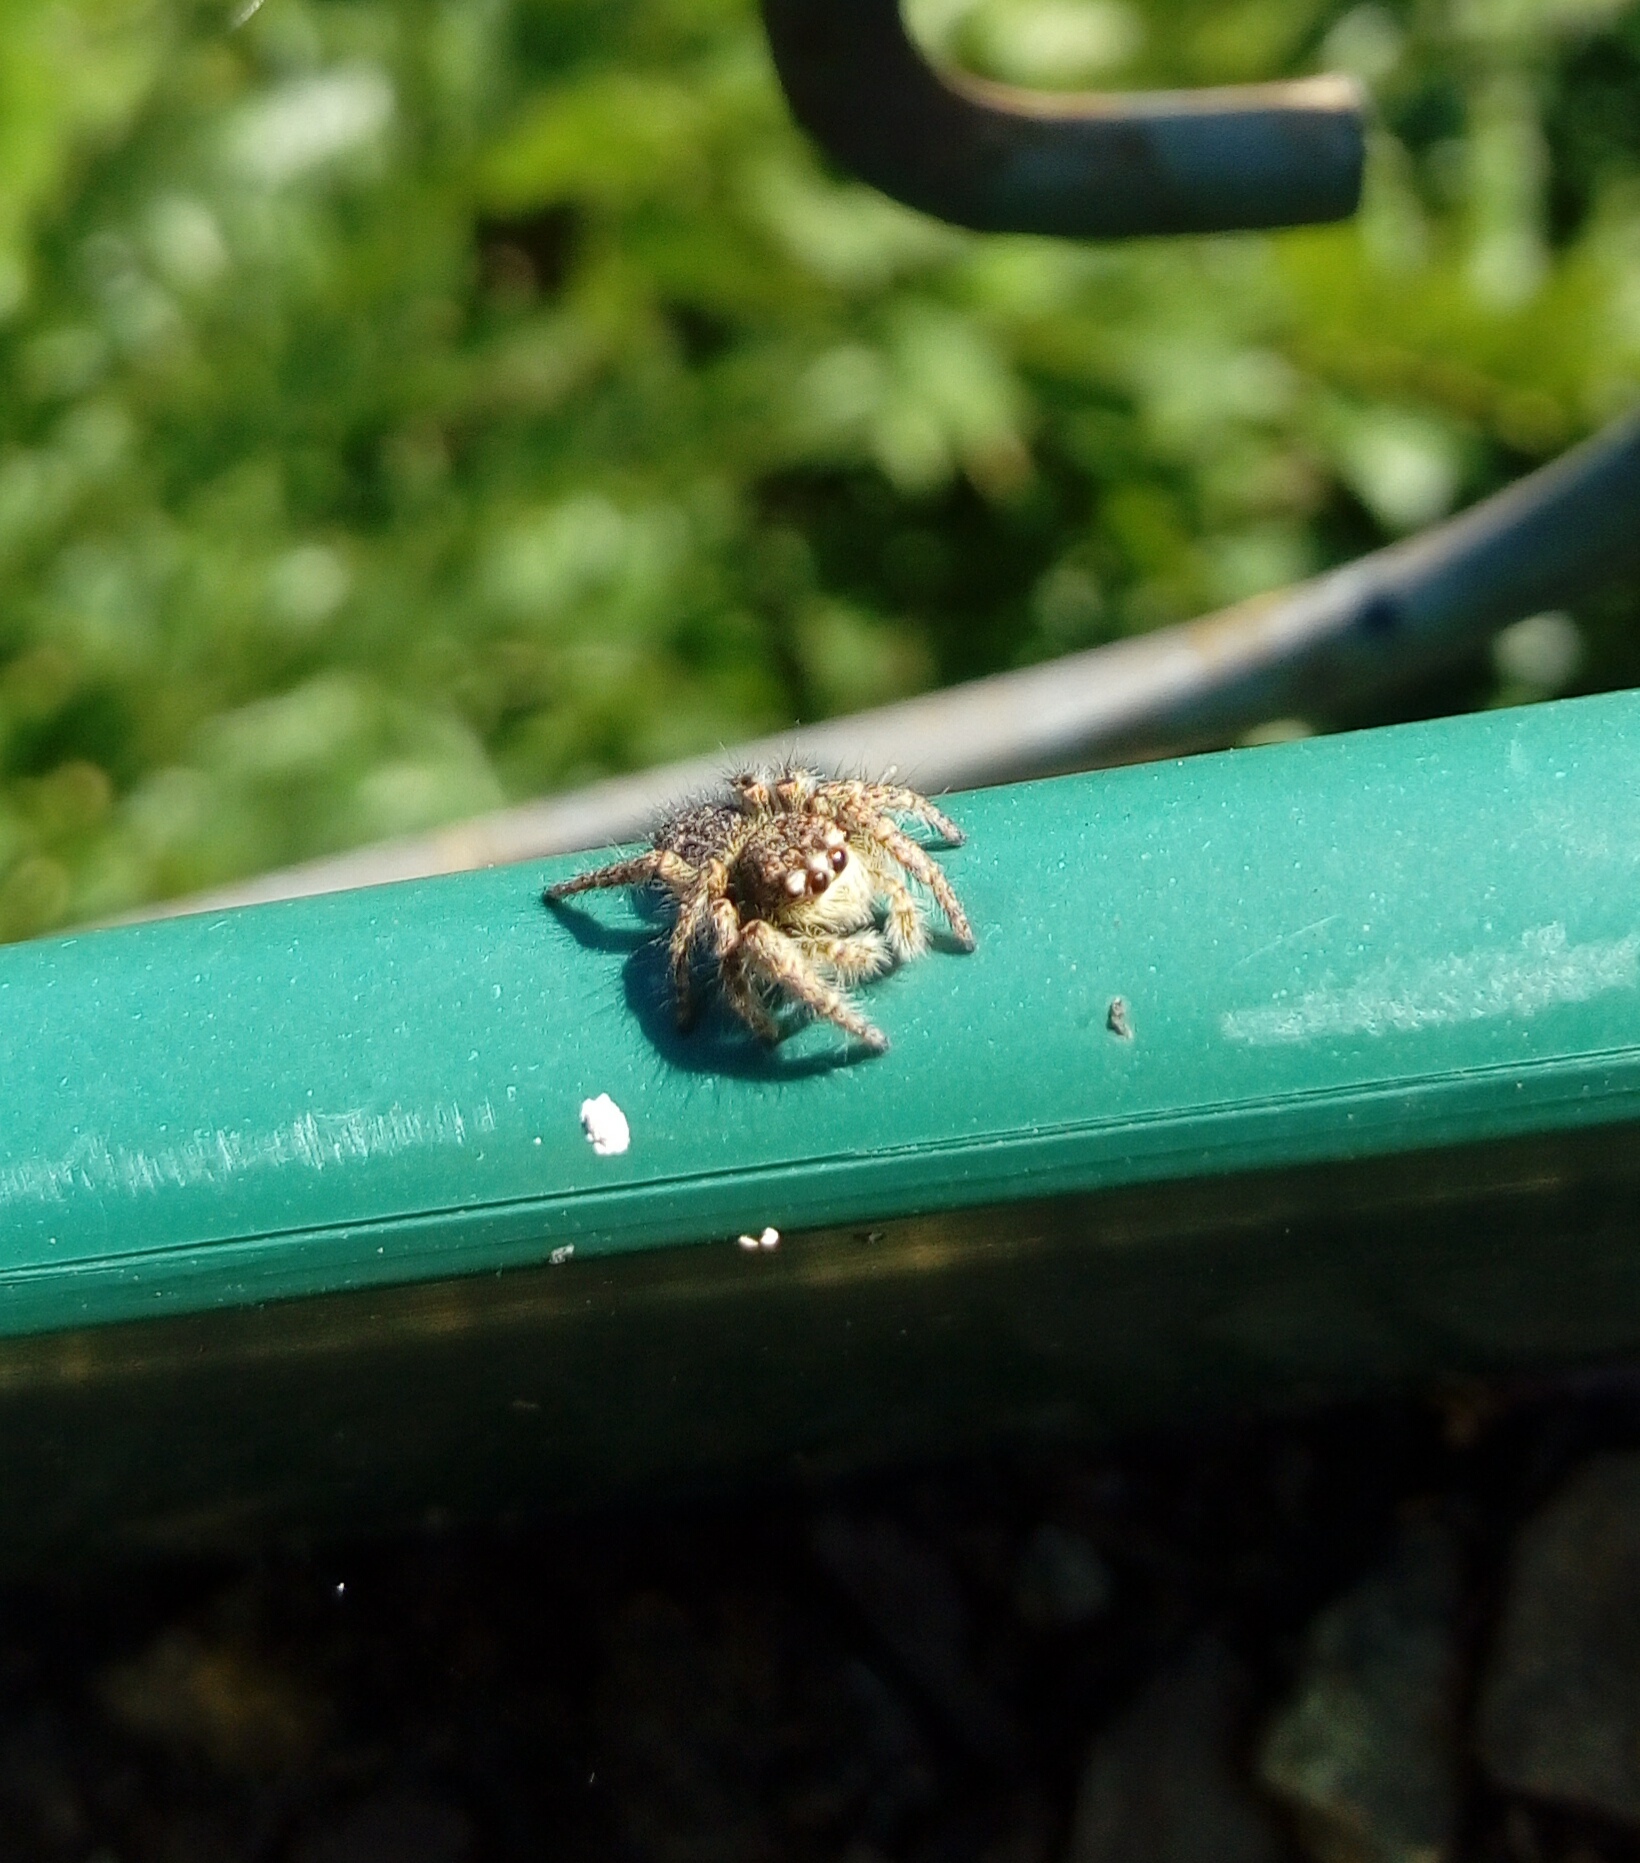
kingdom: Animalia
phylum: Arthropoda
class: Arachnida
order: Araneae
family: Salticidae
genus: Philaeus
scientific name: Philaeus chrysops
